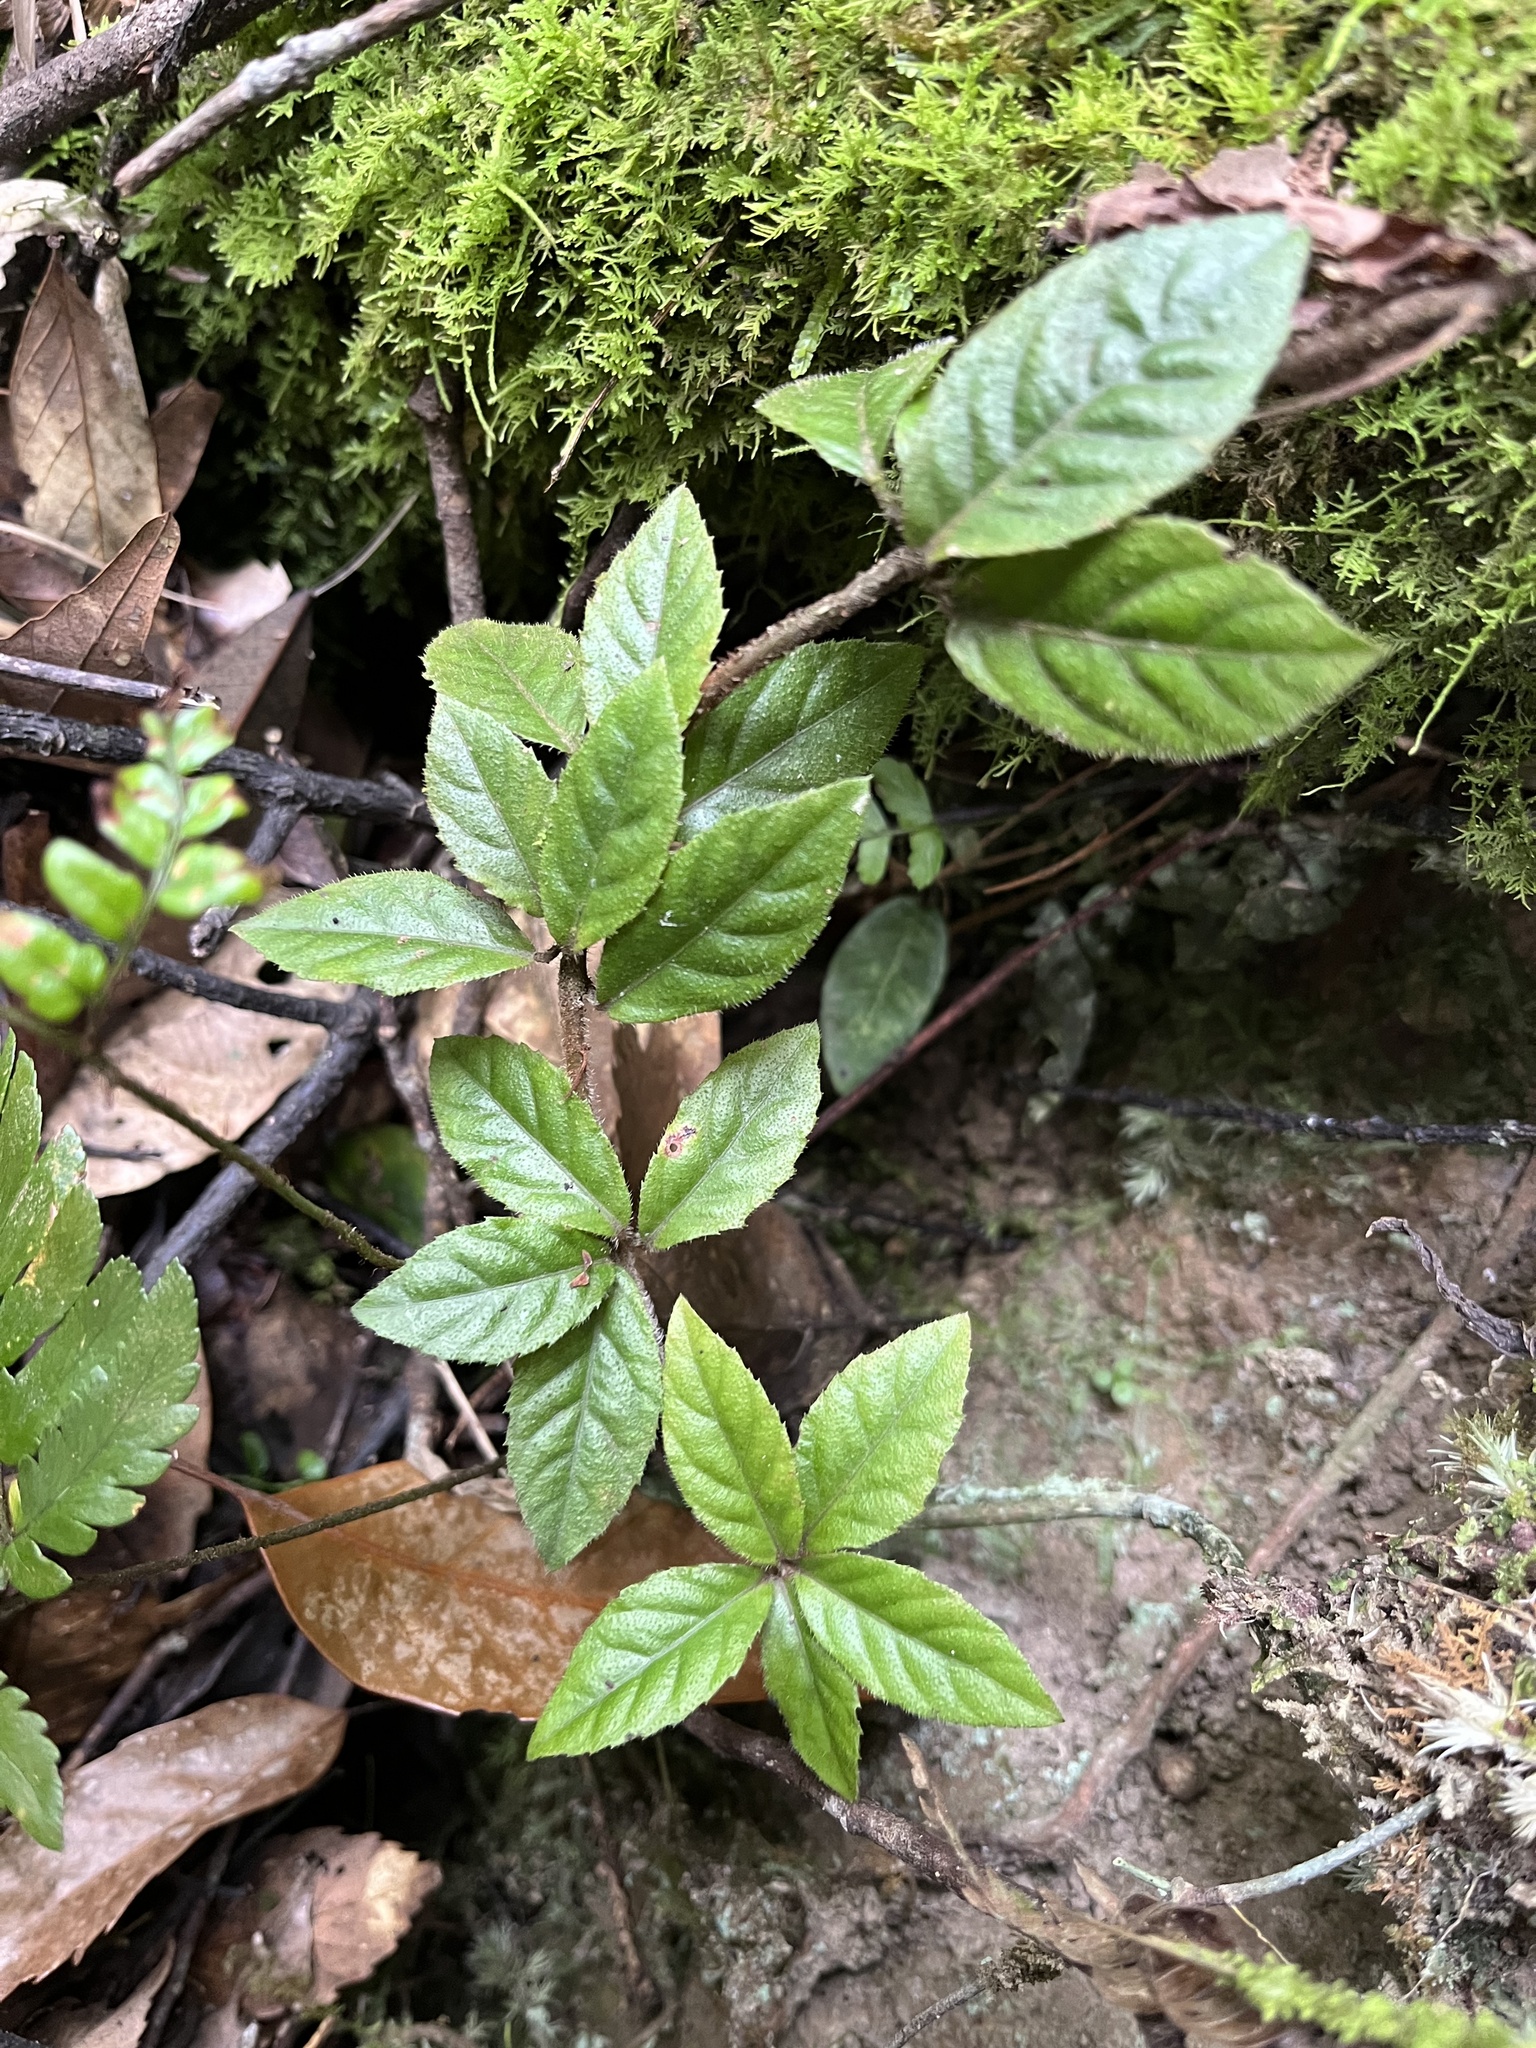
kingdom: Plantae
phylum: Tracheophyta
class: Magnoliopsida
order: Ericales
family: Primulaceae
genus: Ardisia
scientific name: Ardisia pusilla
